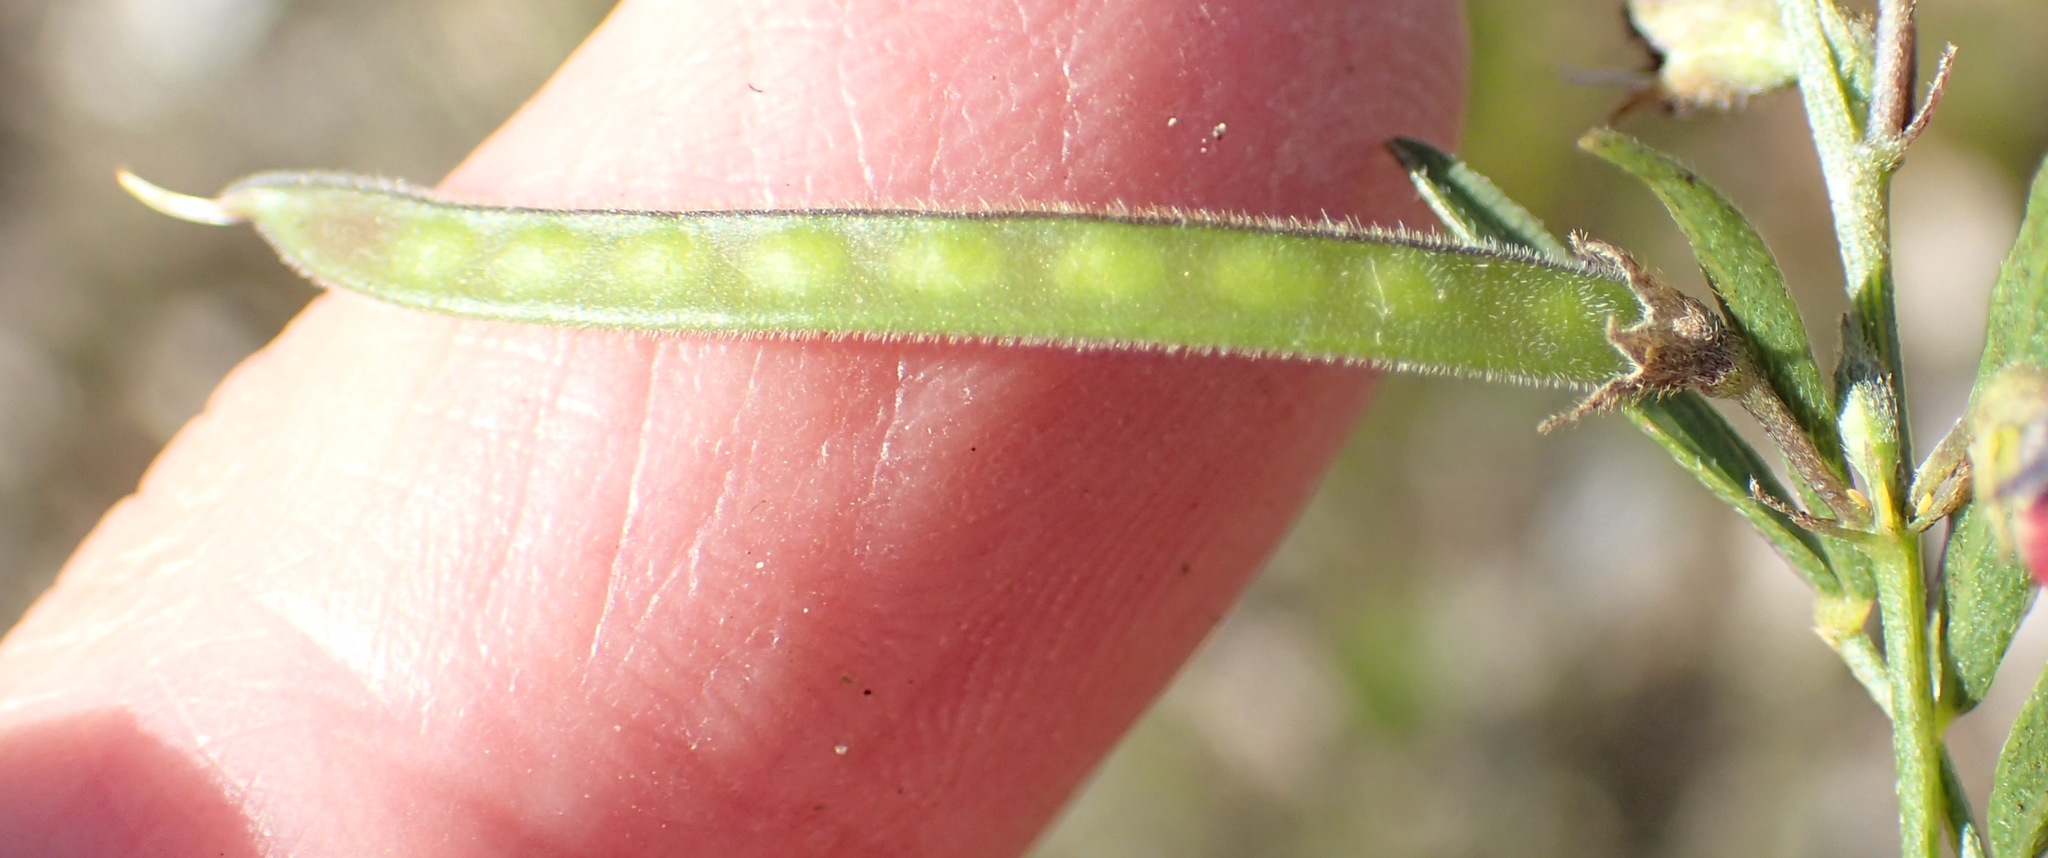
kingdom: Plantae
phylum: Tracheophyta
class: Magnoliopsida
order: Fabales
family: Fabaceae
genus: Tephrosia
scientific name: Tephrosia capensis
